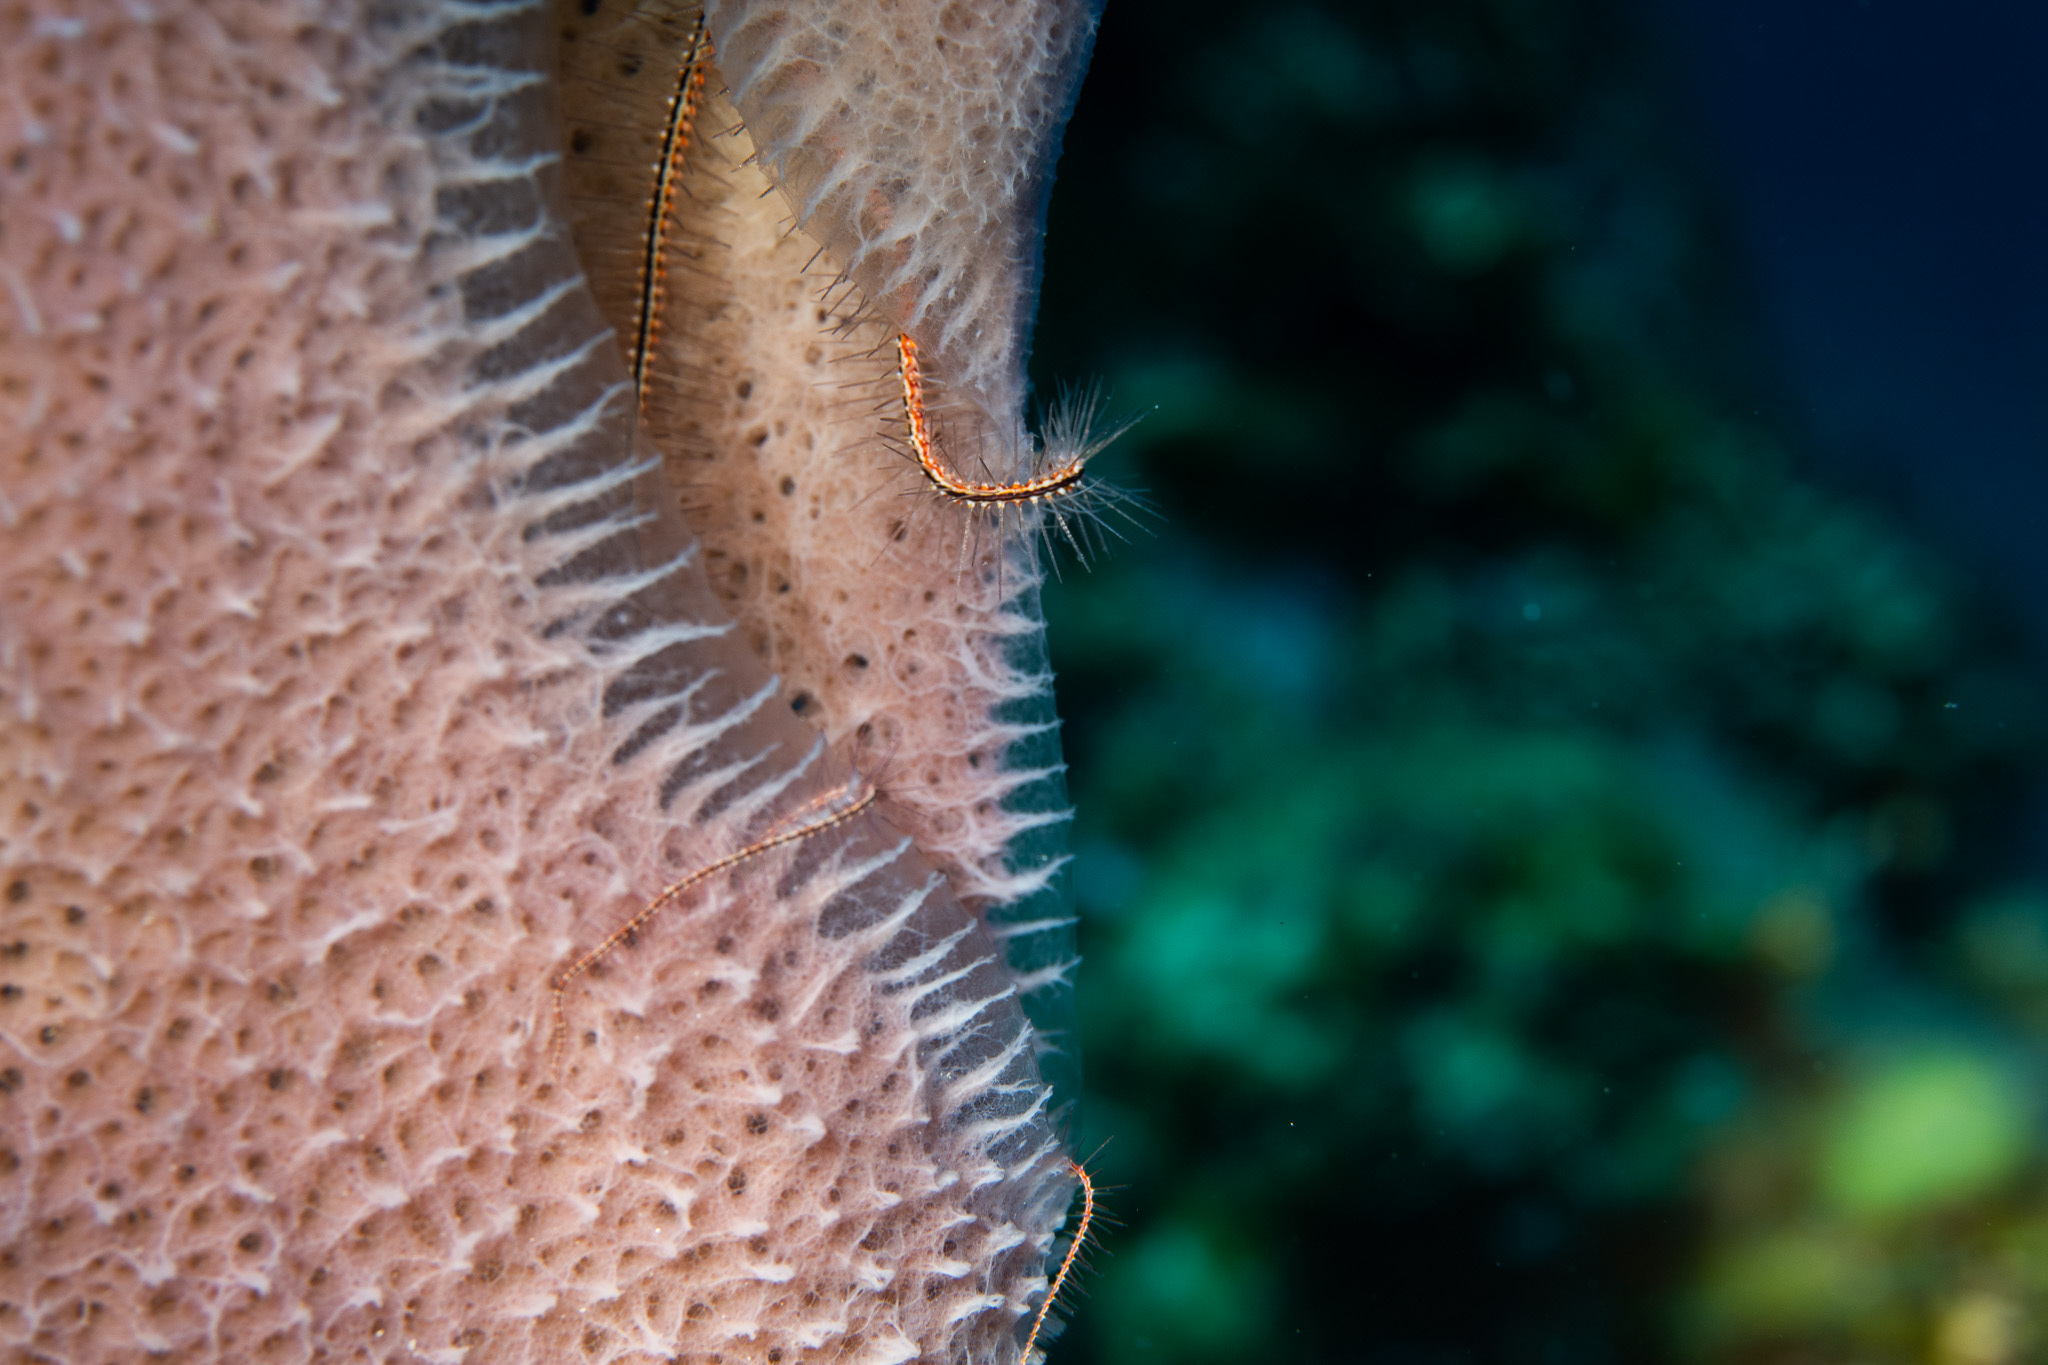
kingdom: Animalia
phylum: Echinodermata
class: Ophiuroidea
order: Amphilepidida
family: Ophiotrichidae
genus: Ophiothrix
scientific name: Ophiothrix suensonii
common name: Sponge brittle star
